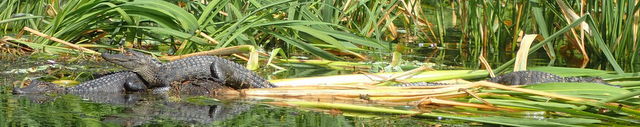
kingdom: Animalia
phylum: Chordata
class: Crocodylia
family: Alligatoridae
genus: Alligator
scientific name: Alligator mississippiensis
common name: American alligator
